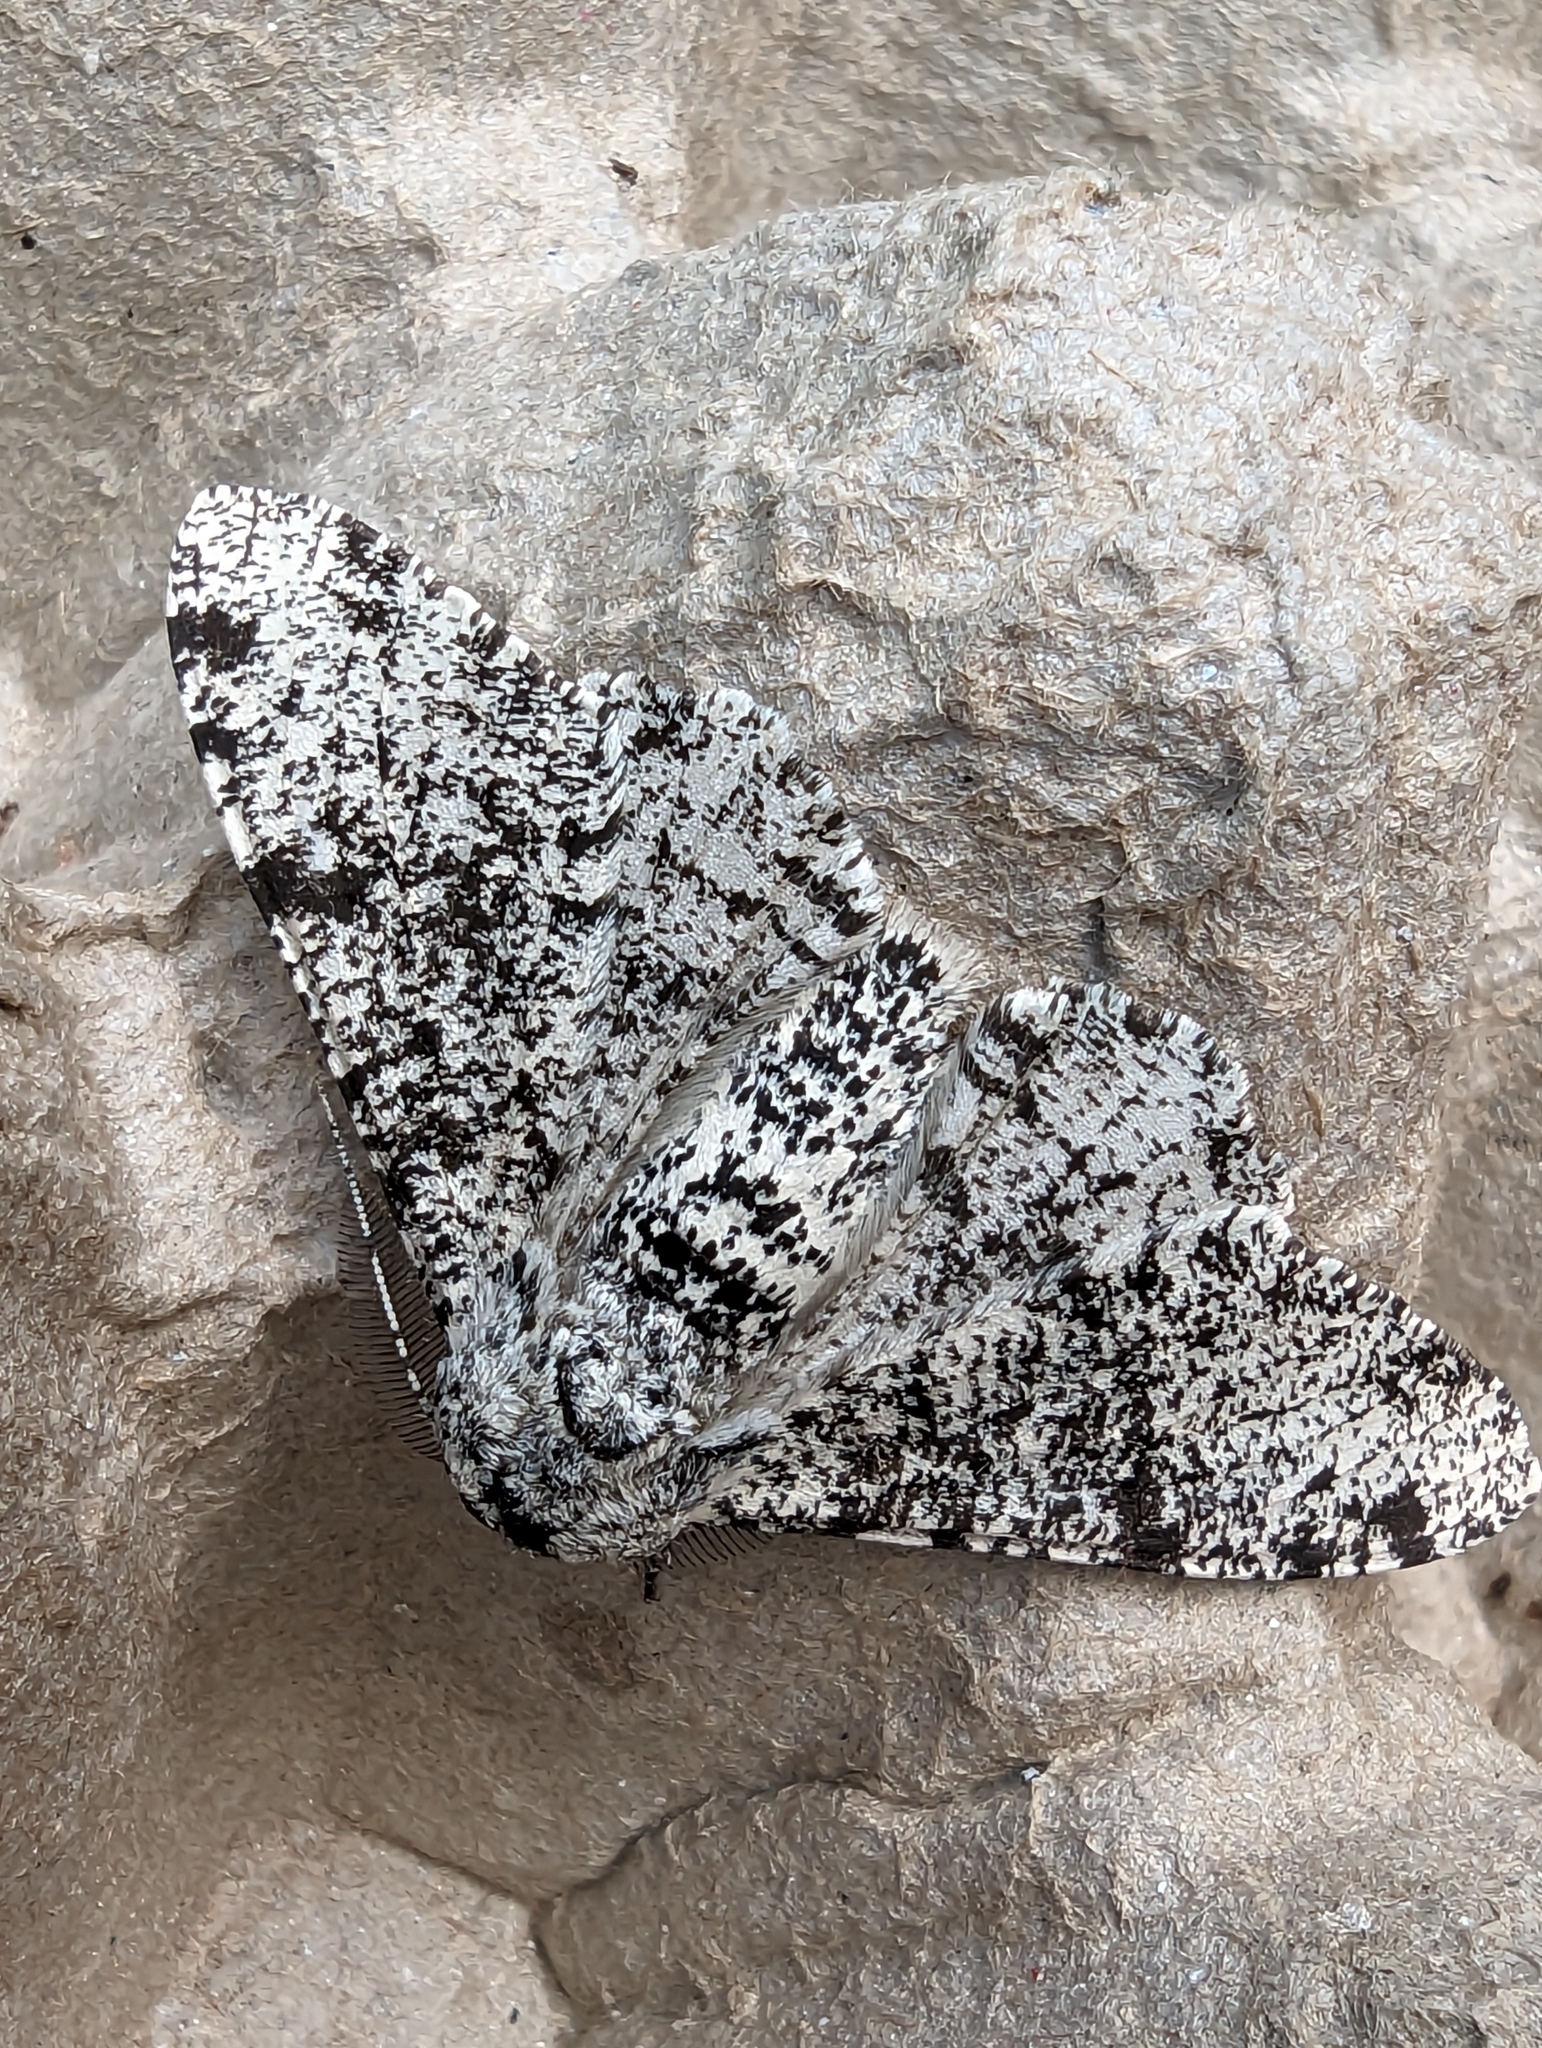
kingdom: Animalia
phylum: Arthropoda
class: Insecta
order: Lepidoptera
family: Geometridae
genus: Biston
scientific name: Biston betularia
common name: Peppered moth
